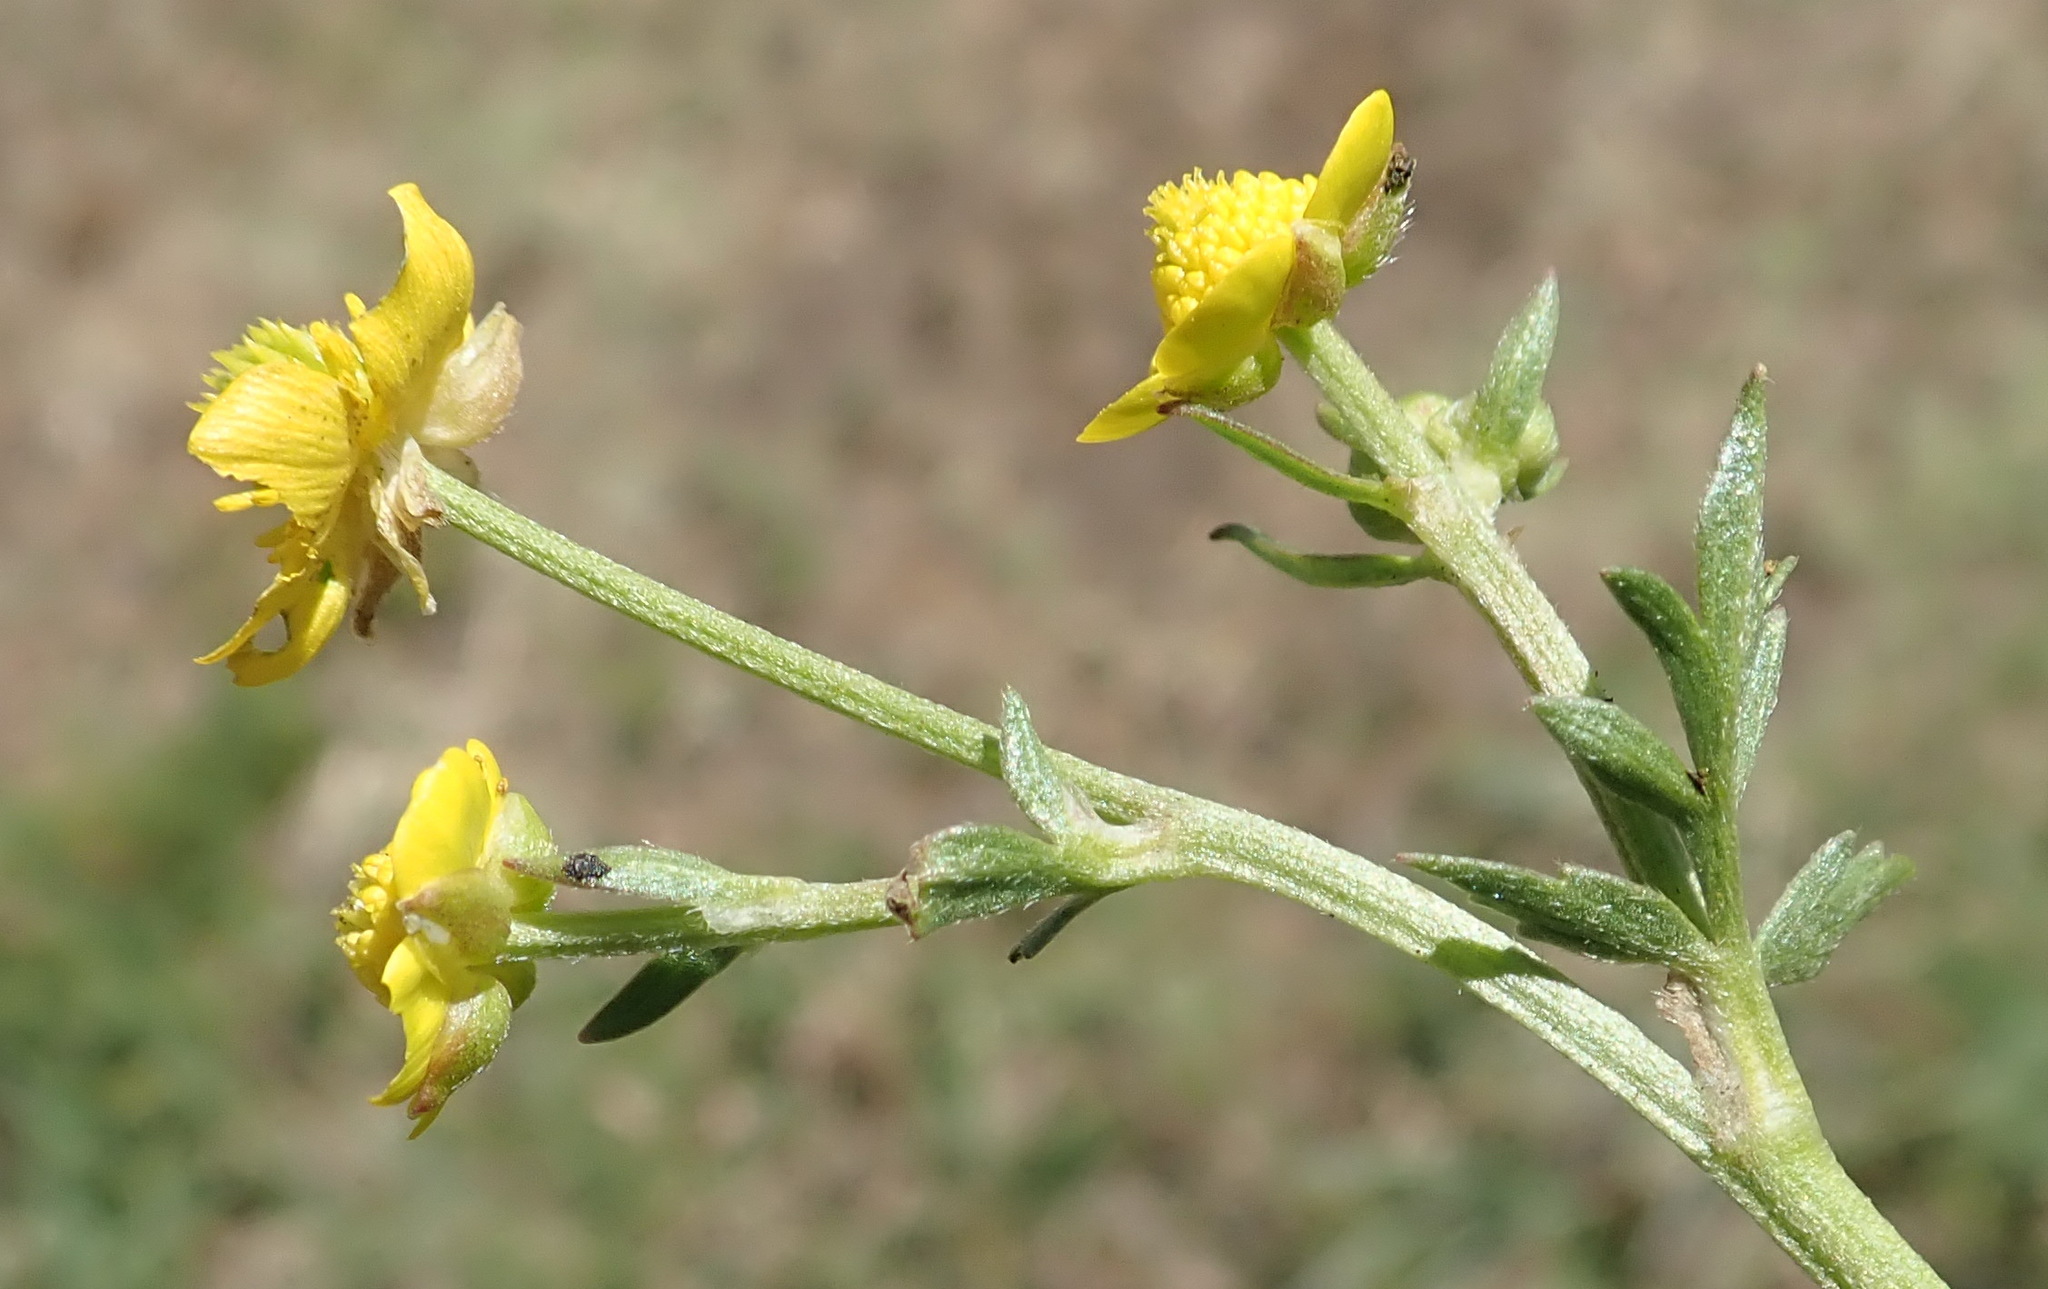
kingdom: Plantae
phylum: Tracheophyta
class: Magnoliopsida
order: Ranunculales
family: Ranunculaceae
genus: Ranunculus
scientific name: Ranunculus multifidus
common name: Wild buttercup
